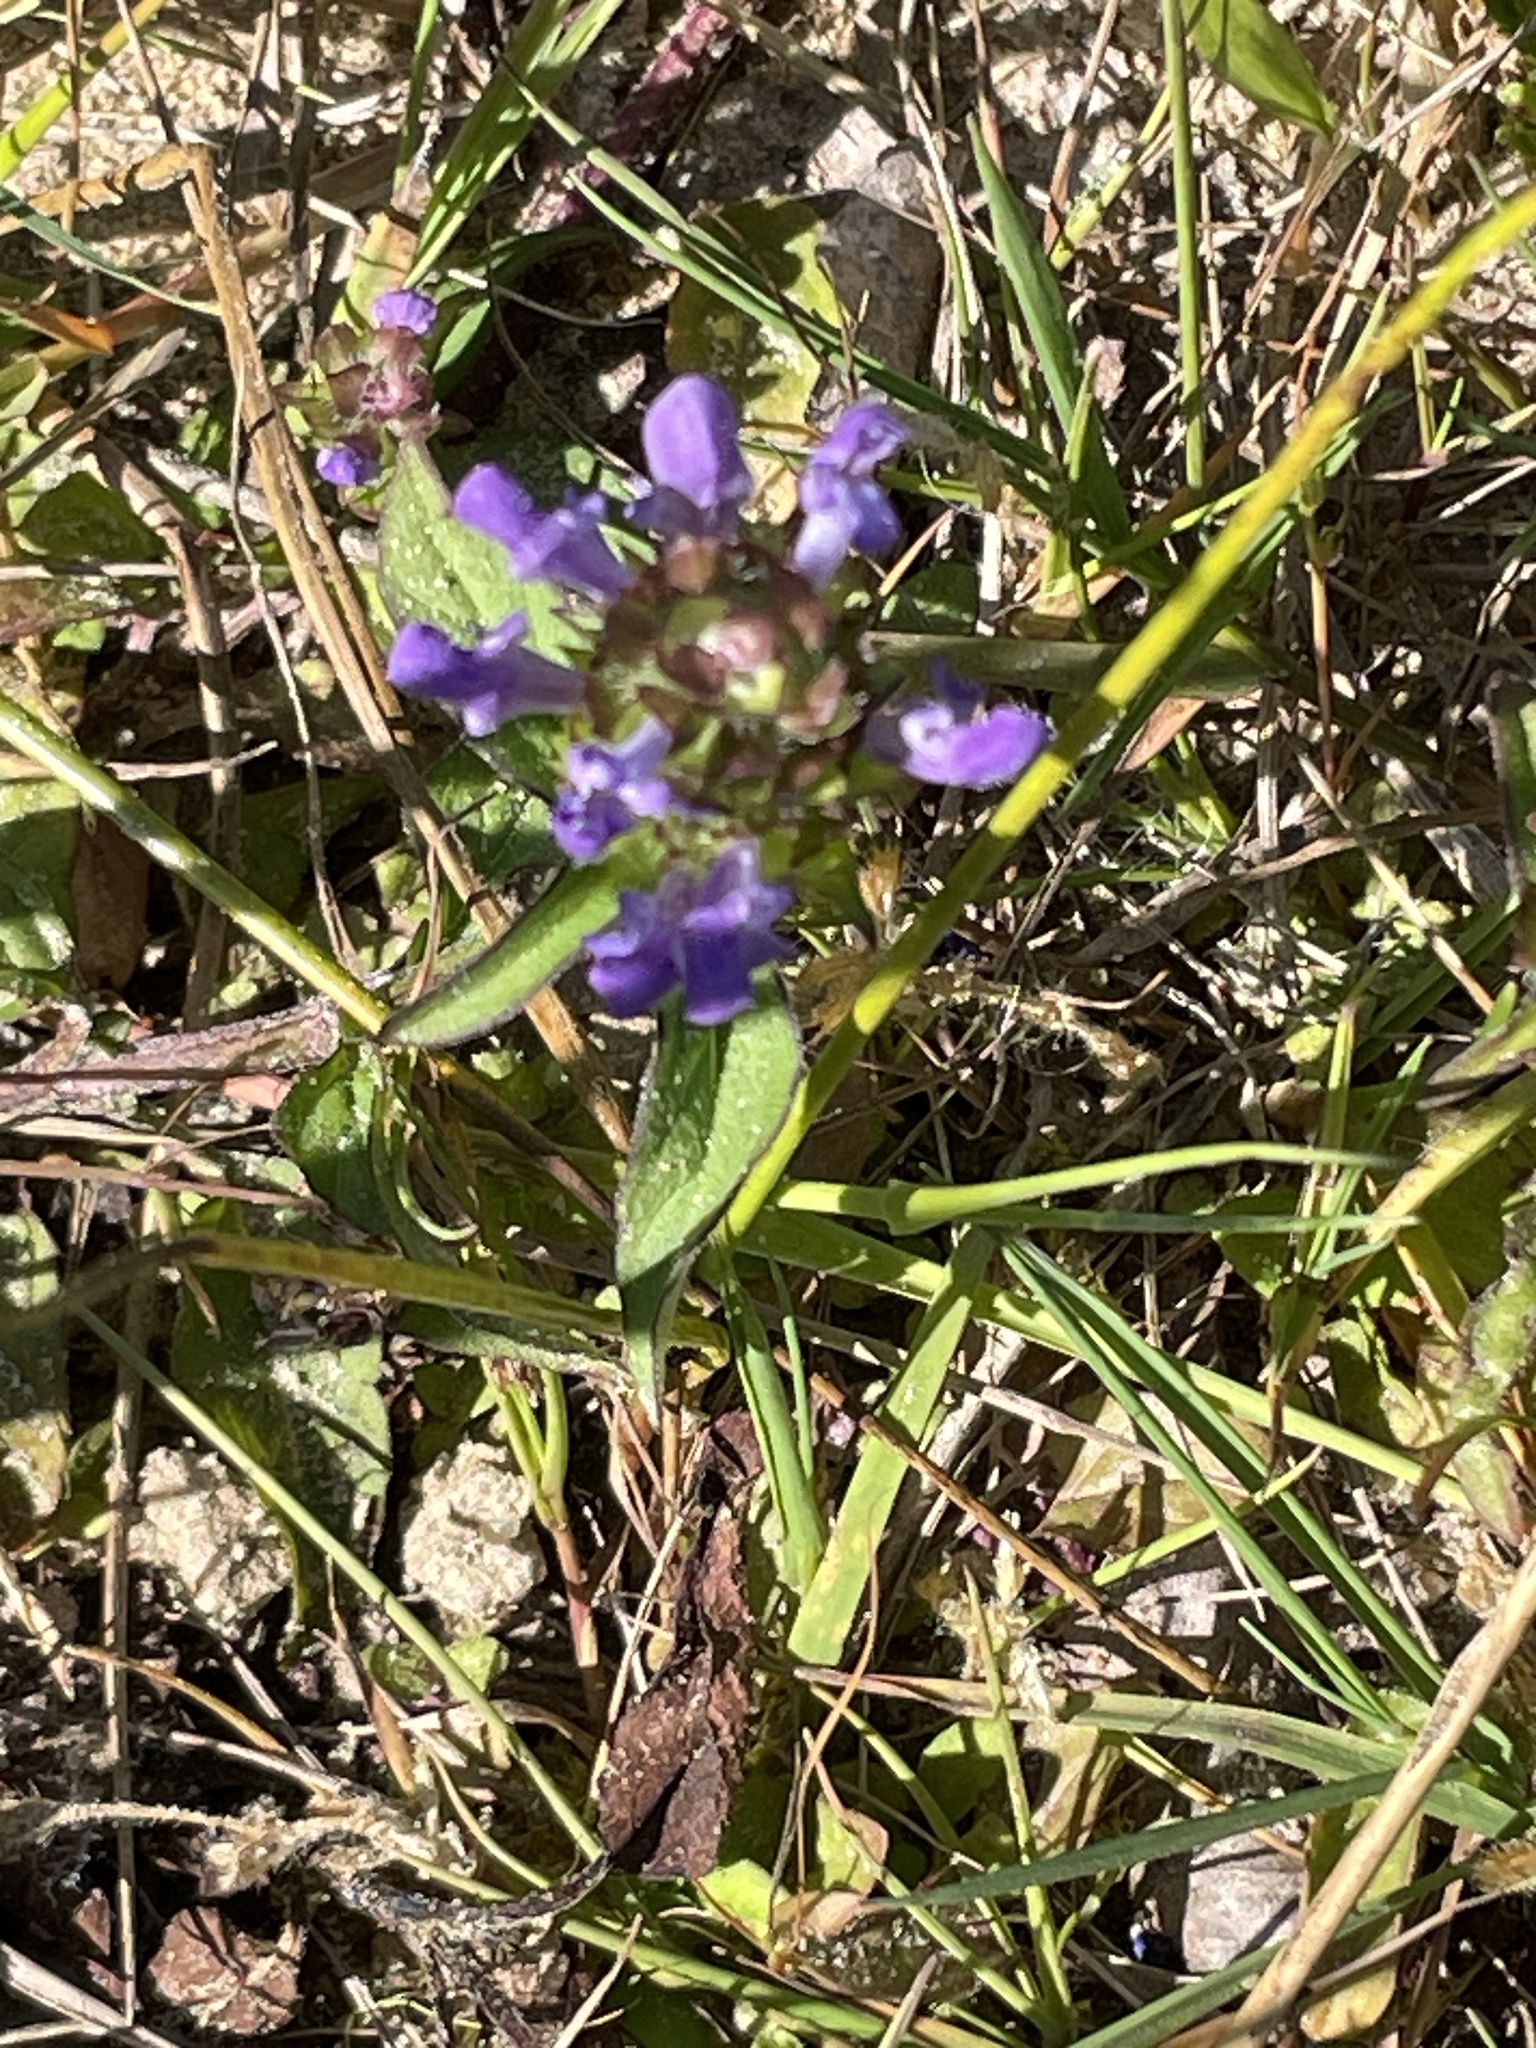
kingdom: Plantae
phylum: Tracheophyta
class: Magnoliopsida
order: Lamiales
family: Lamiaceae
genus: Prunella
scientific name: Prunella vulgaris
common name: Heal-all
